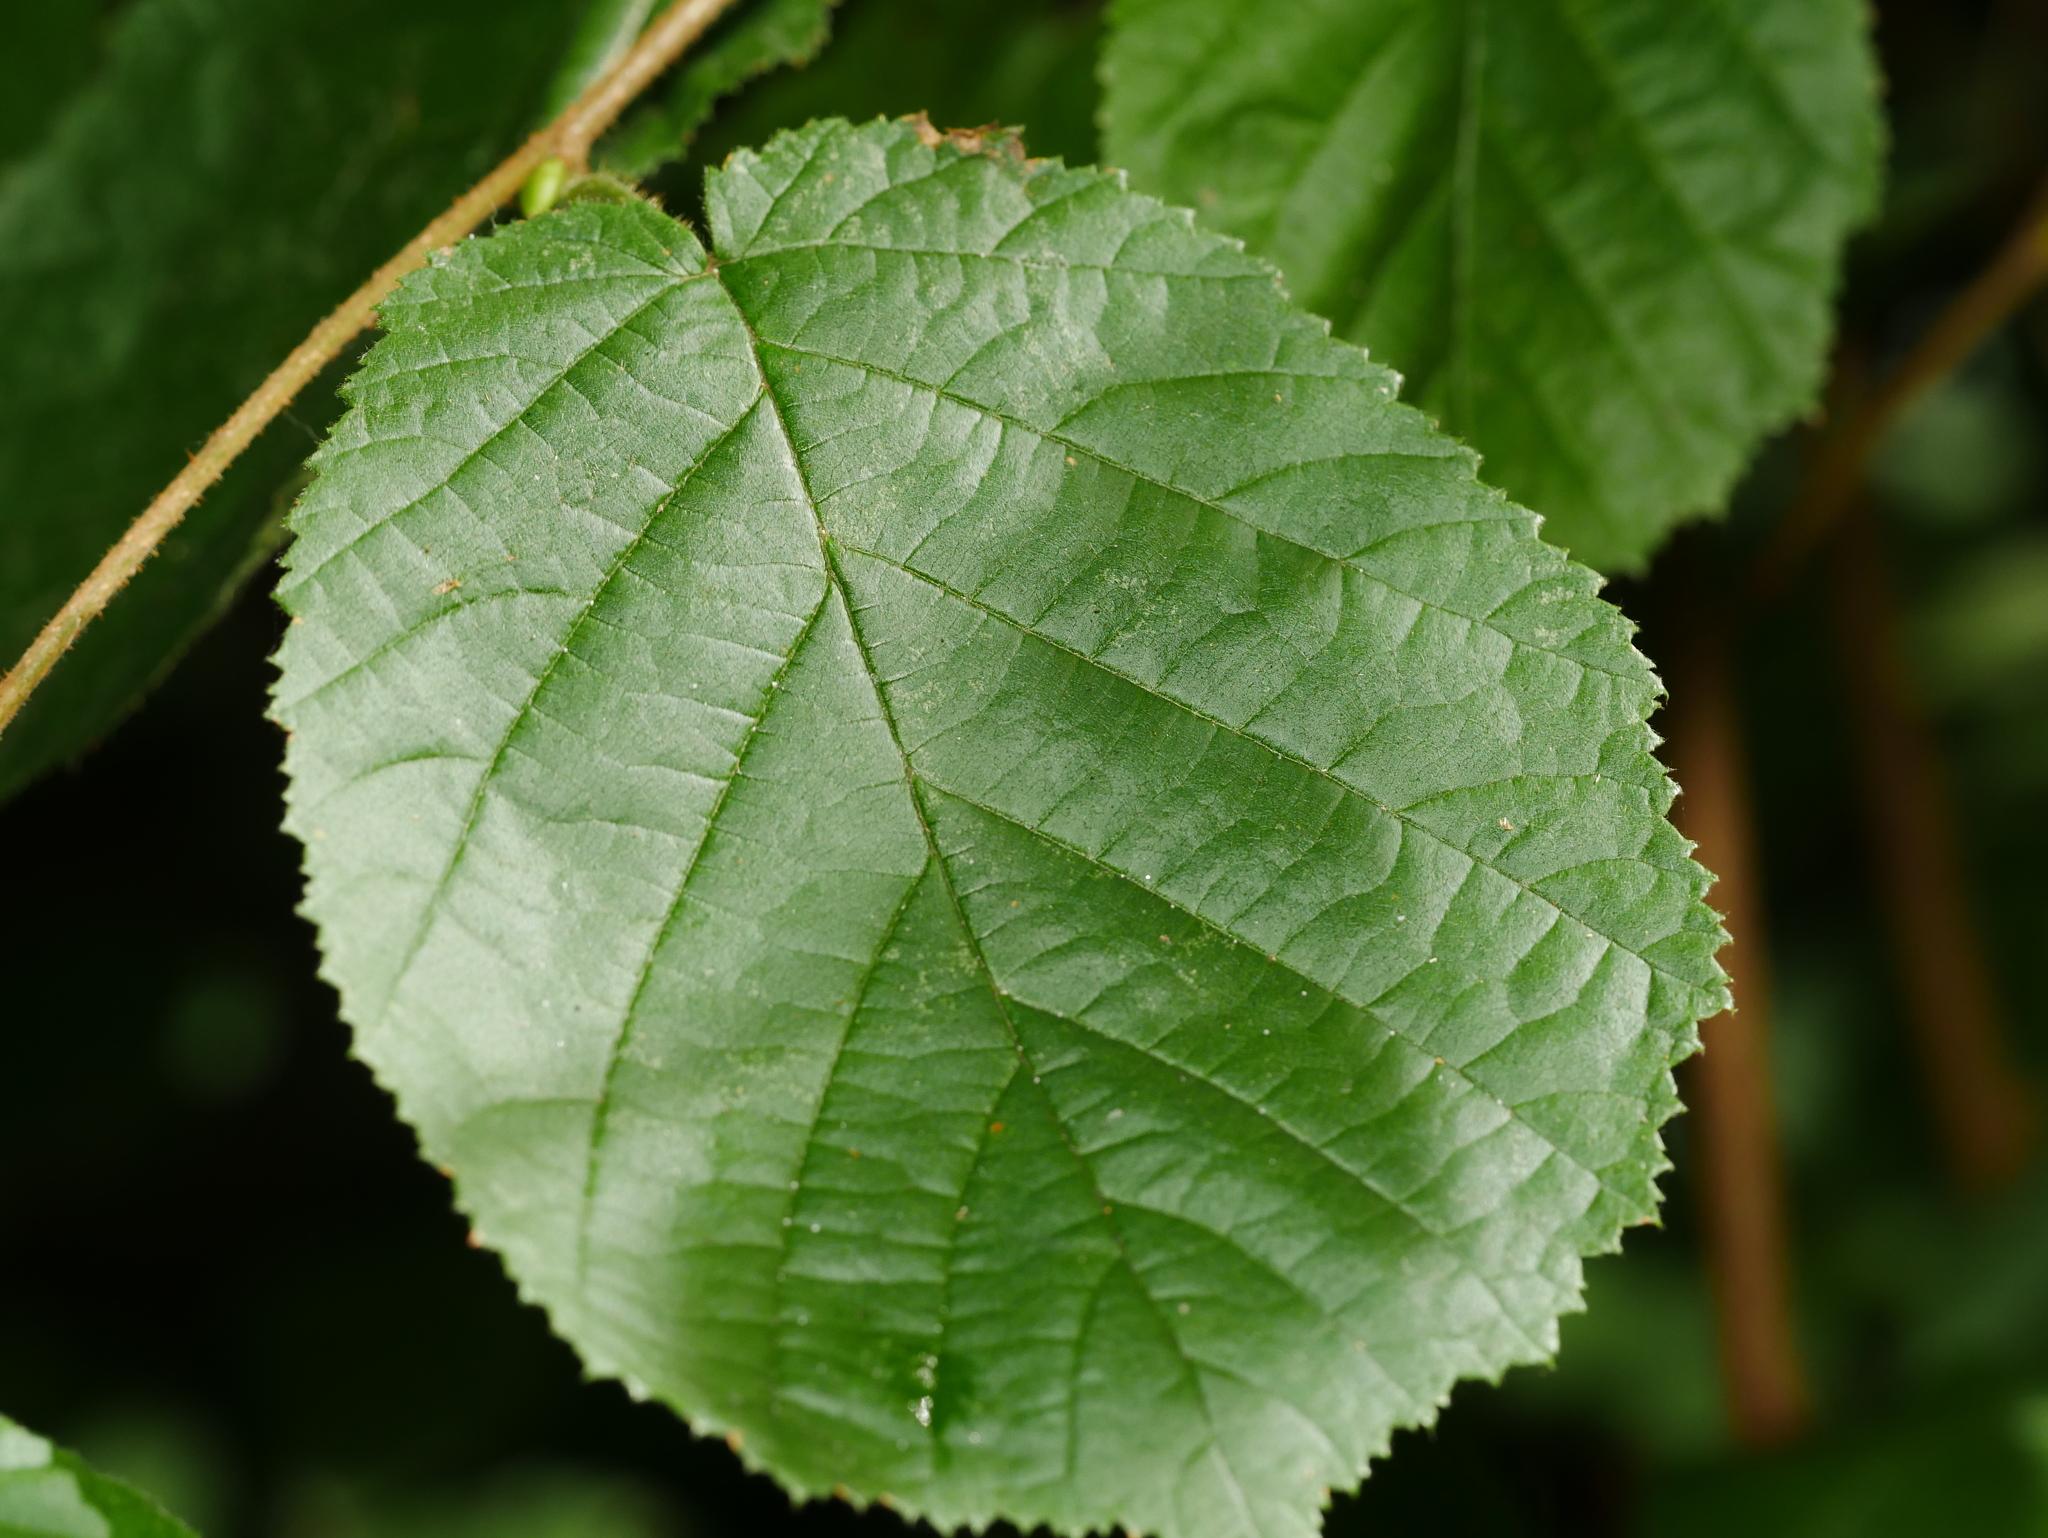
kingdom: Plantae
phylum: Tracheophyta
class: Magnoliopsida
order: Fagales
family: Betulaceae
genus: Corylus
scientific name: Corylus avellana
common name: European hazel
